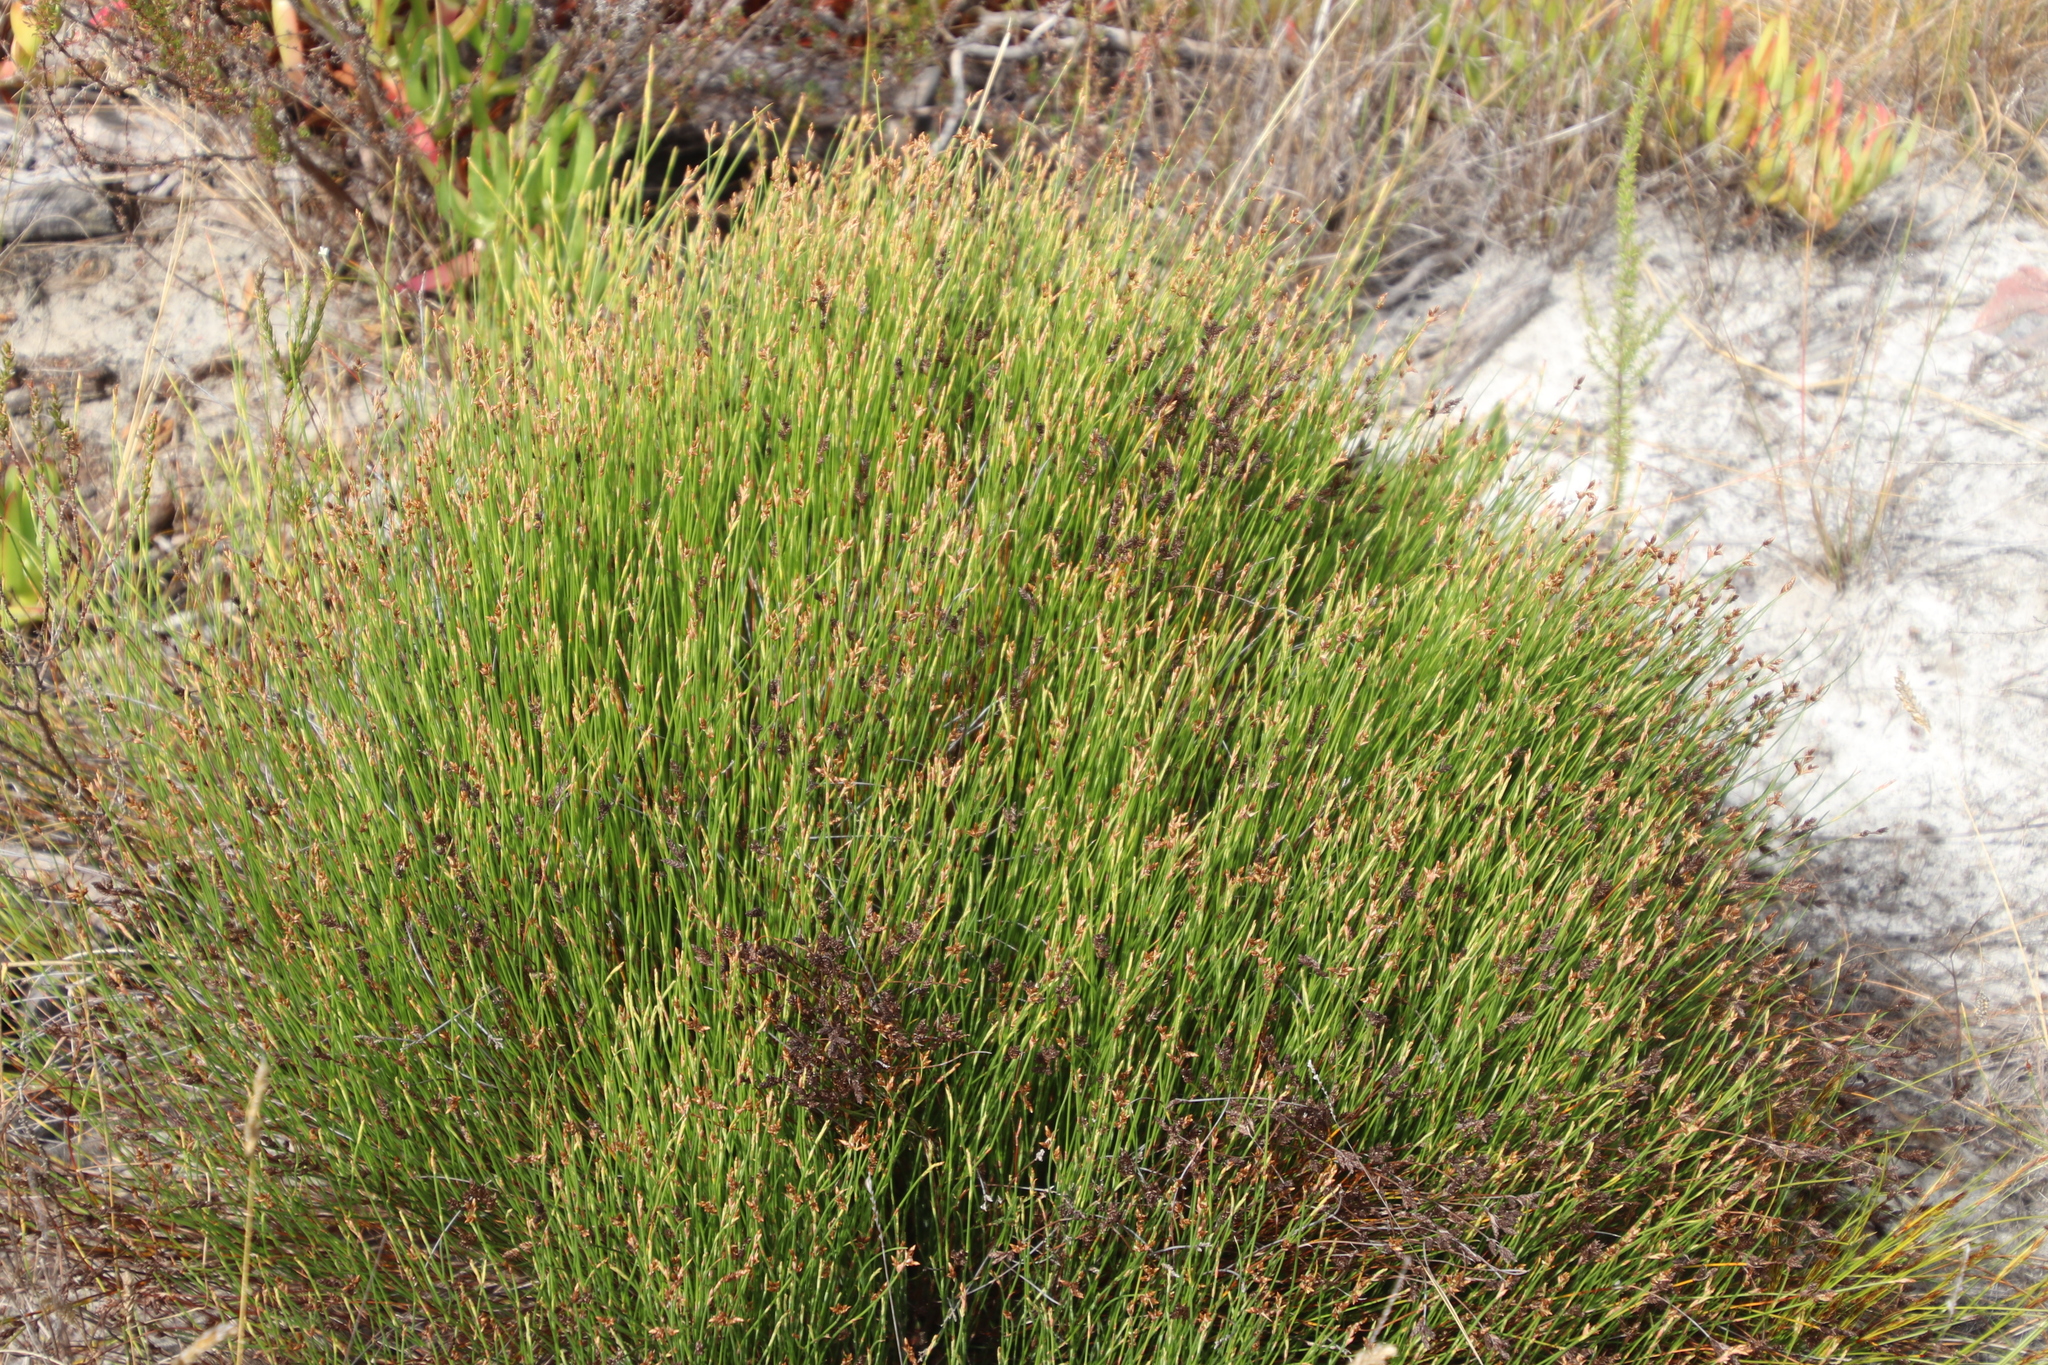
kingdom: Plantae
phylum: Tracheophyta
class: Liliopsida
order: Poales
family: Restionaceae
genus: Mastersiella
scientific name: Mastersiella digitata
